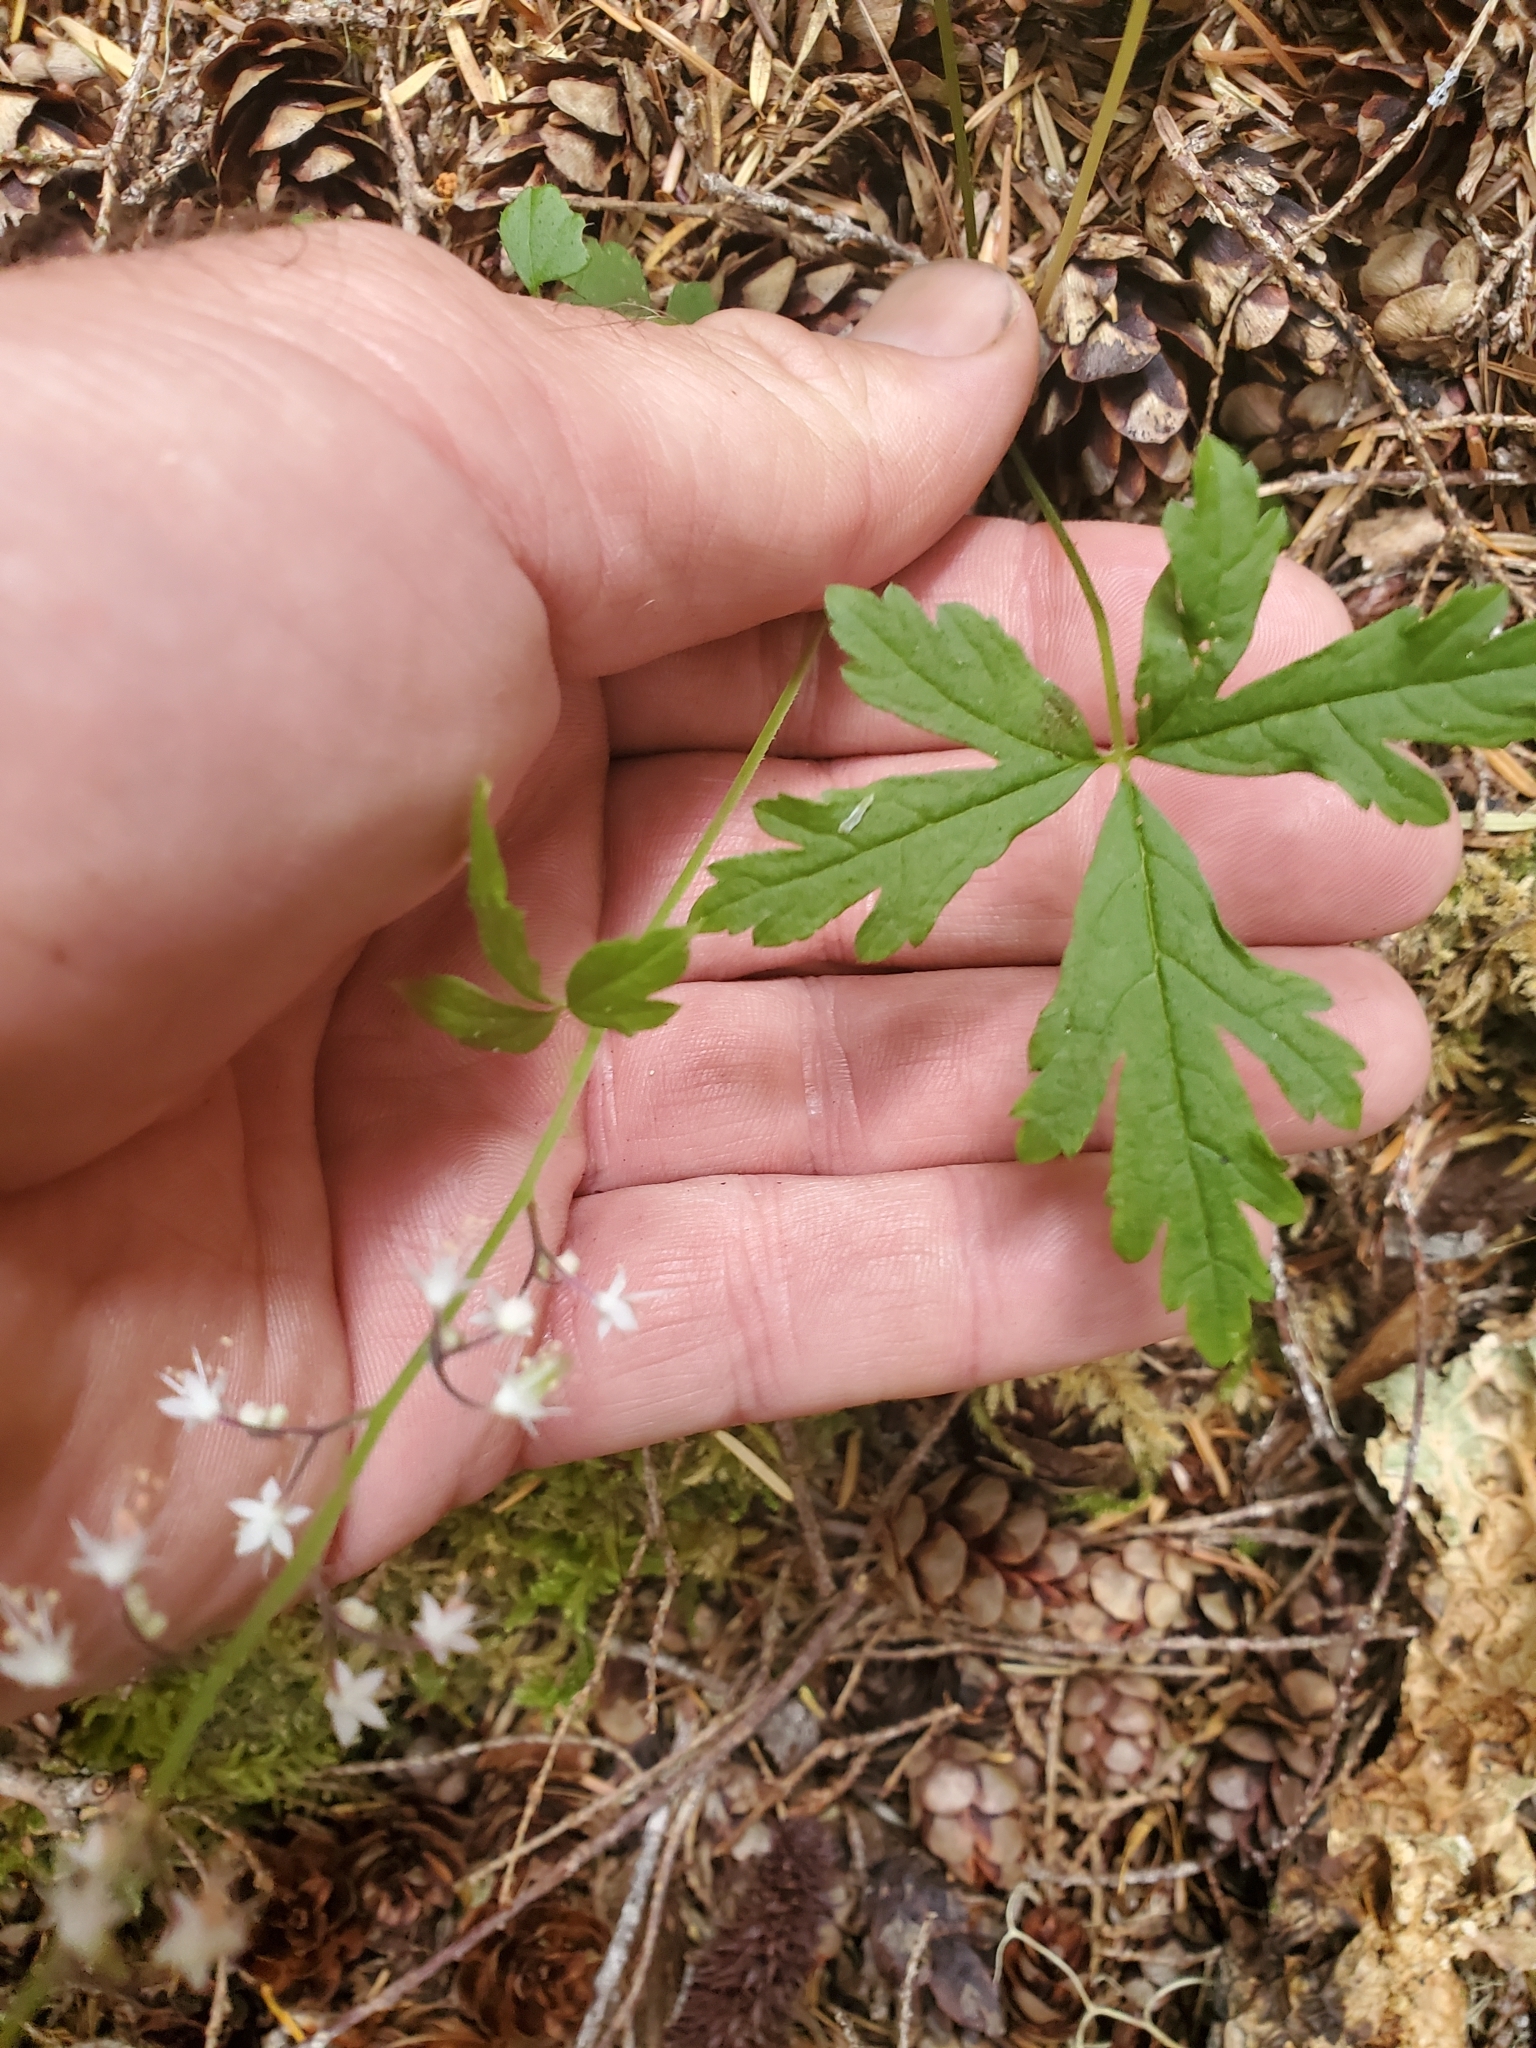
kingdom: Plantae
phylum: Tracheophyta
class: Magnoliopsida
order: Saxifragales
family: Saxifragaceae
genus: Tiarella
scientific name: Tiarella trifoliata
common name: Sugar-scoop
